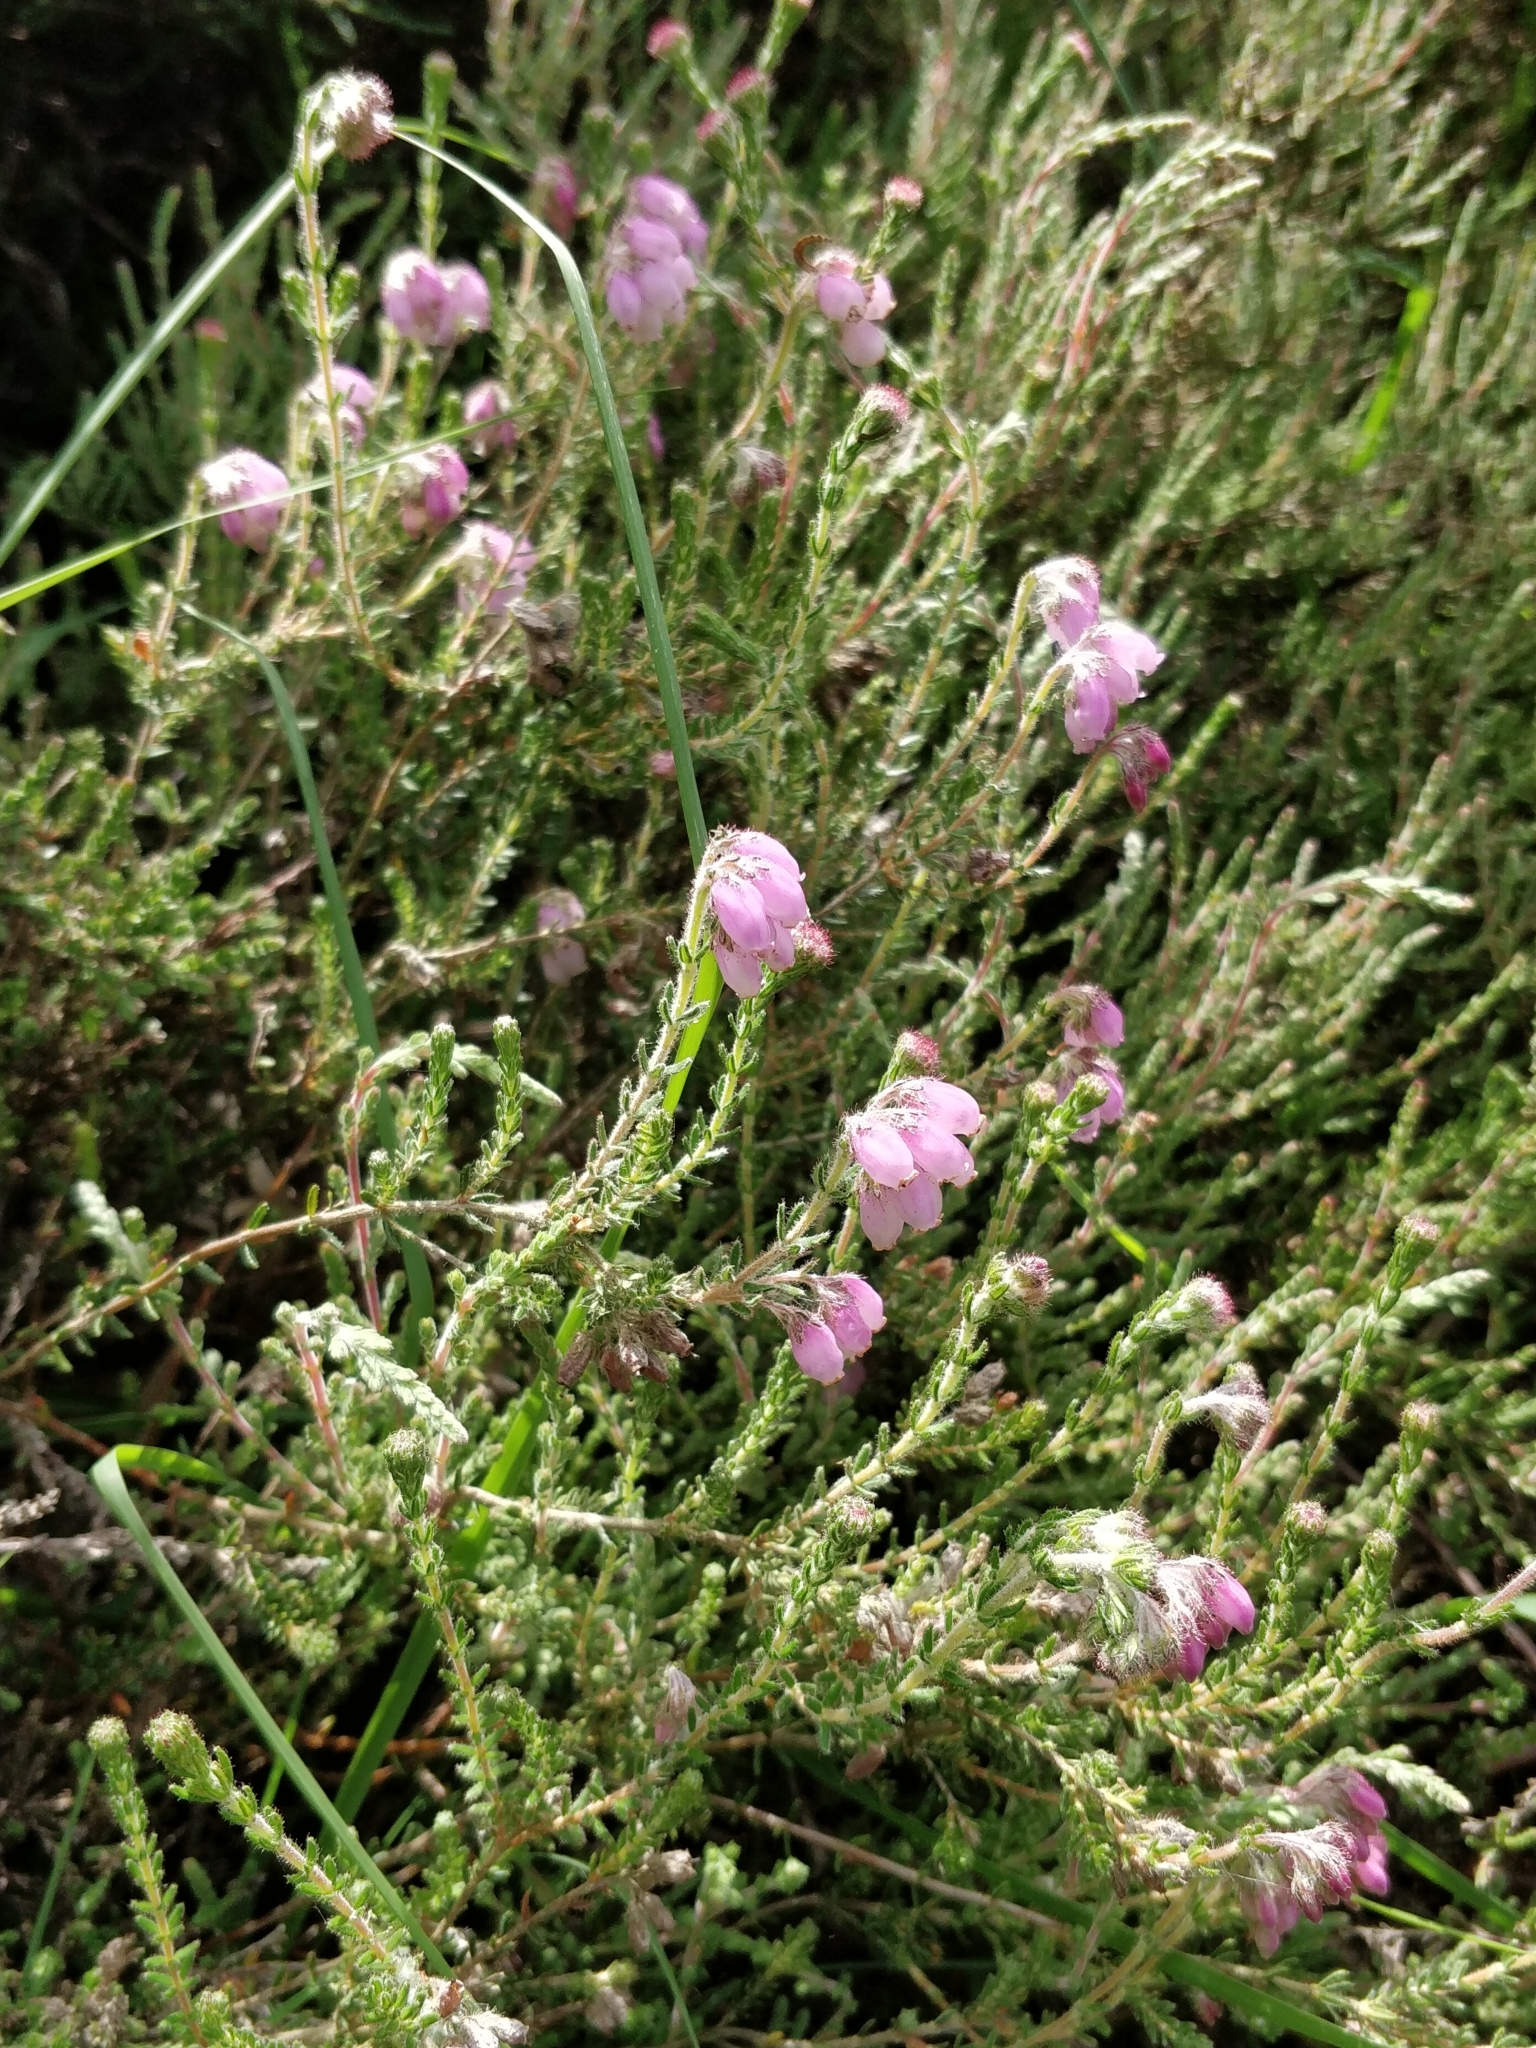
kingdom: Plantae
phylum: Tracheophyta
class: Magnoliopsida
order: Ericales
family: Ericaceae
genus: Erica
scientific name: Erica tetralix
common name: Cross-leaved heath
